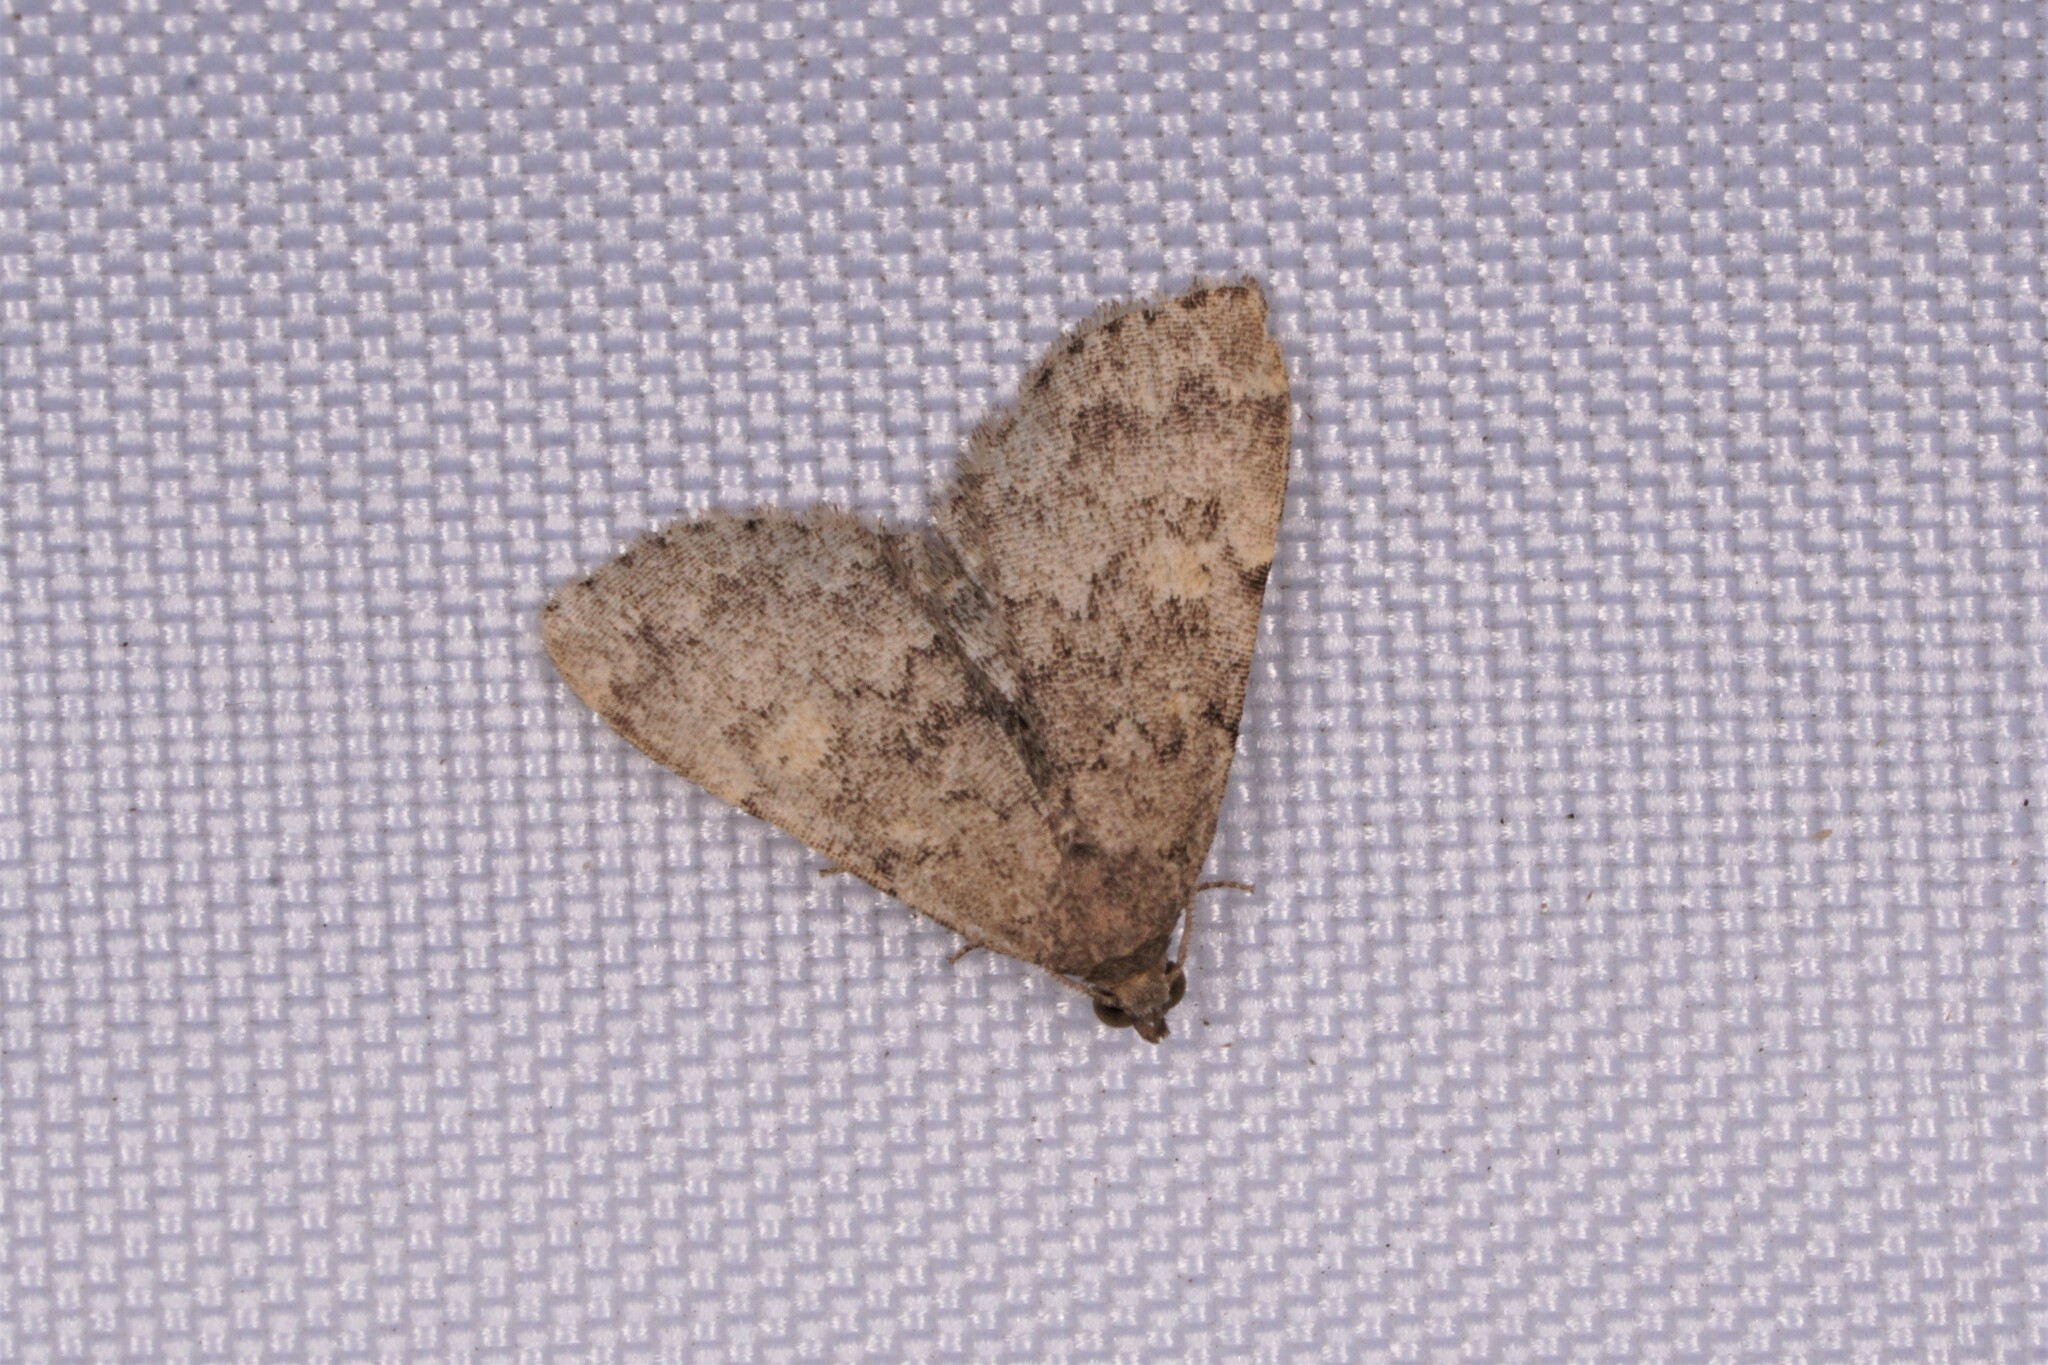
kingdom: Animalia
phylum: Arthropoda
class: Insecta
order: Lepidoptera
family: Erebidae
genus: Idia
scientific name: Idia aemula
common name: Common idia moth
